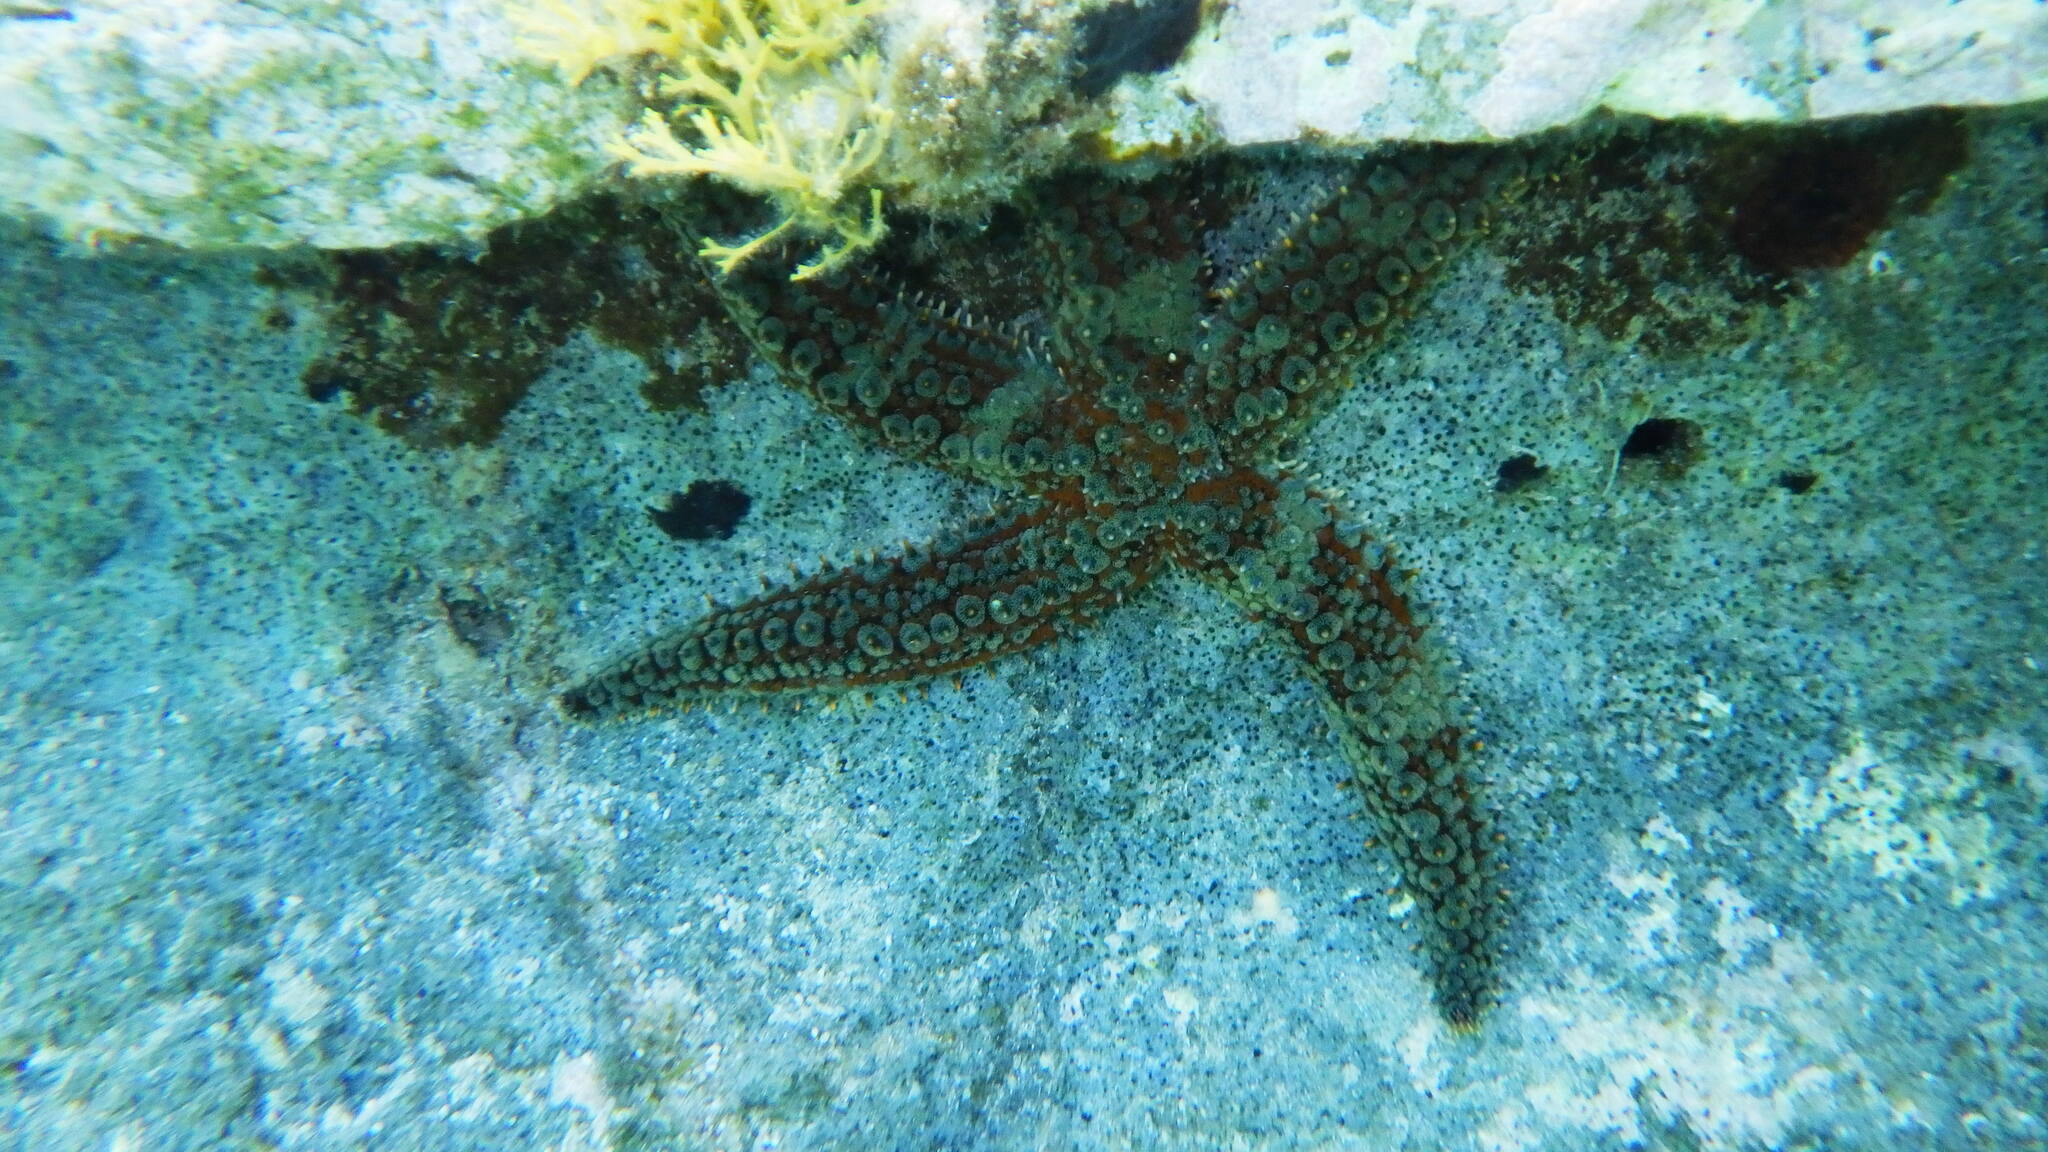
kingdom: Animalia
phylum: Echinodermata
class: Asteroidea
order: Forcipulatida
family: Asteriidae
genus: Marthasterias
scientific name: Marthasterias glacialis
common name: Spiny starfish
